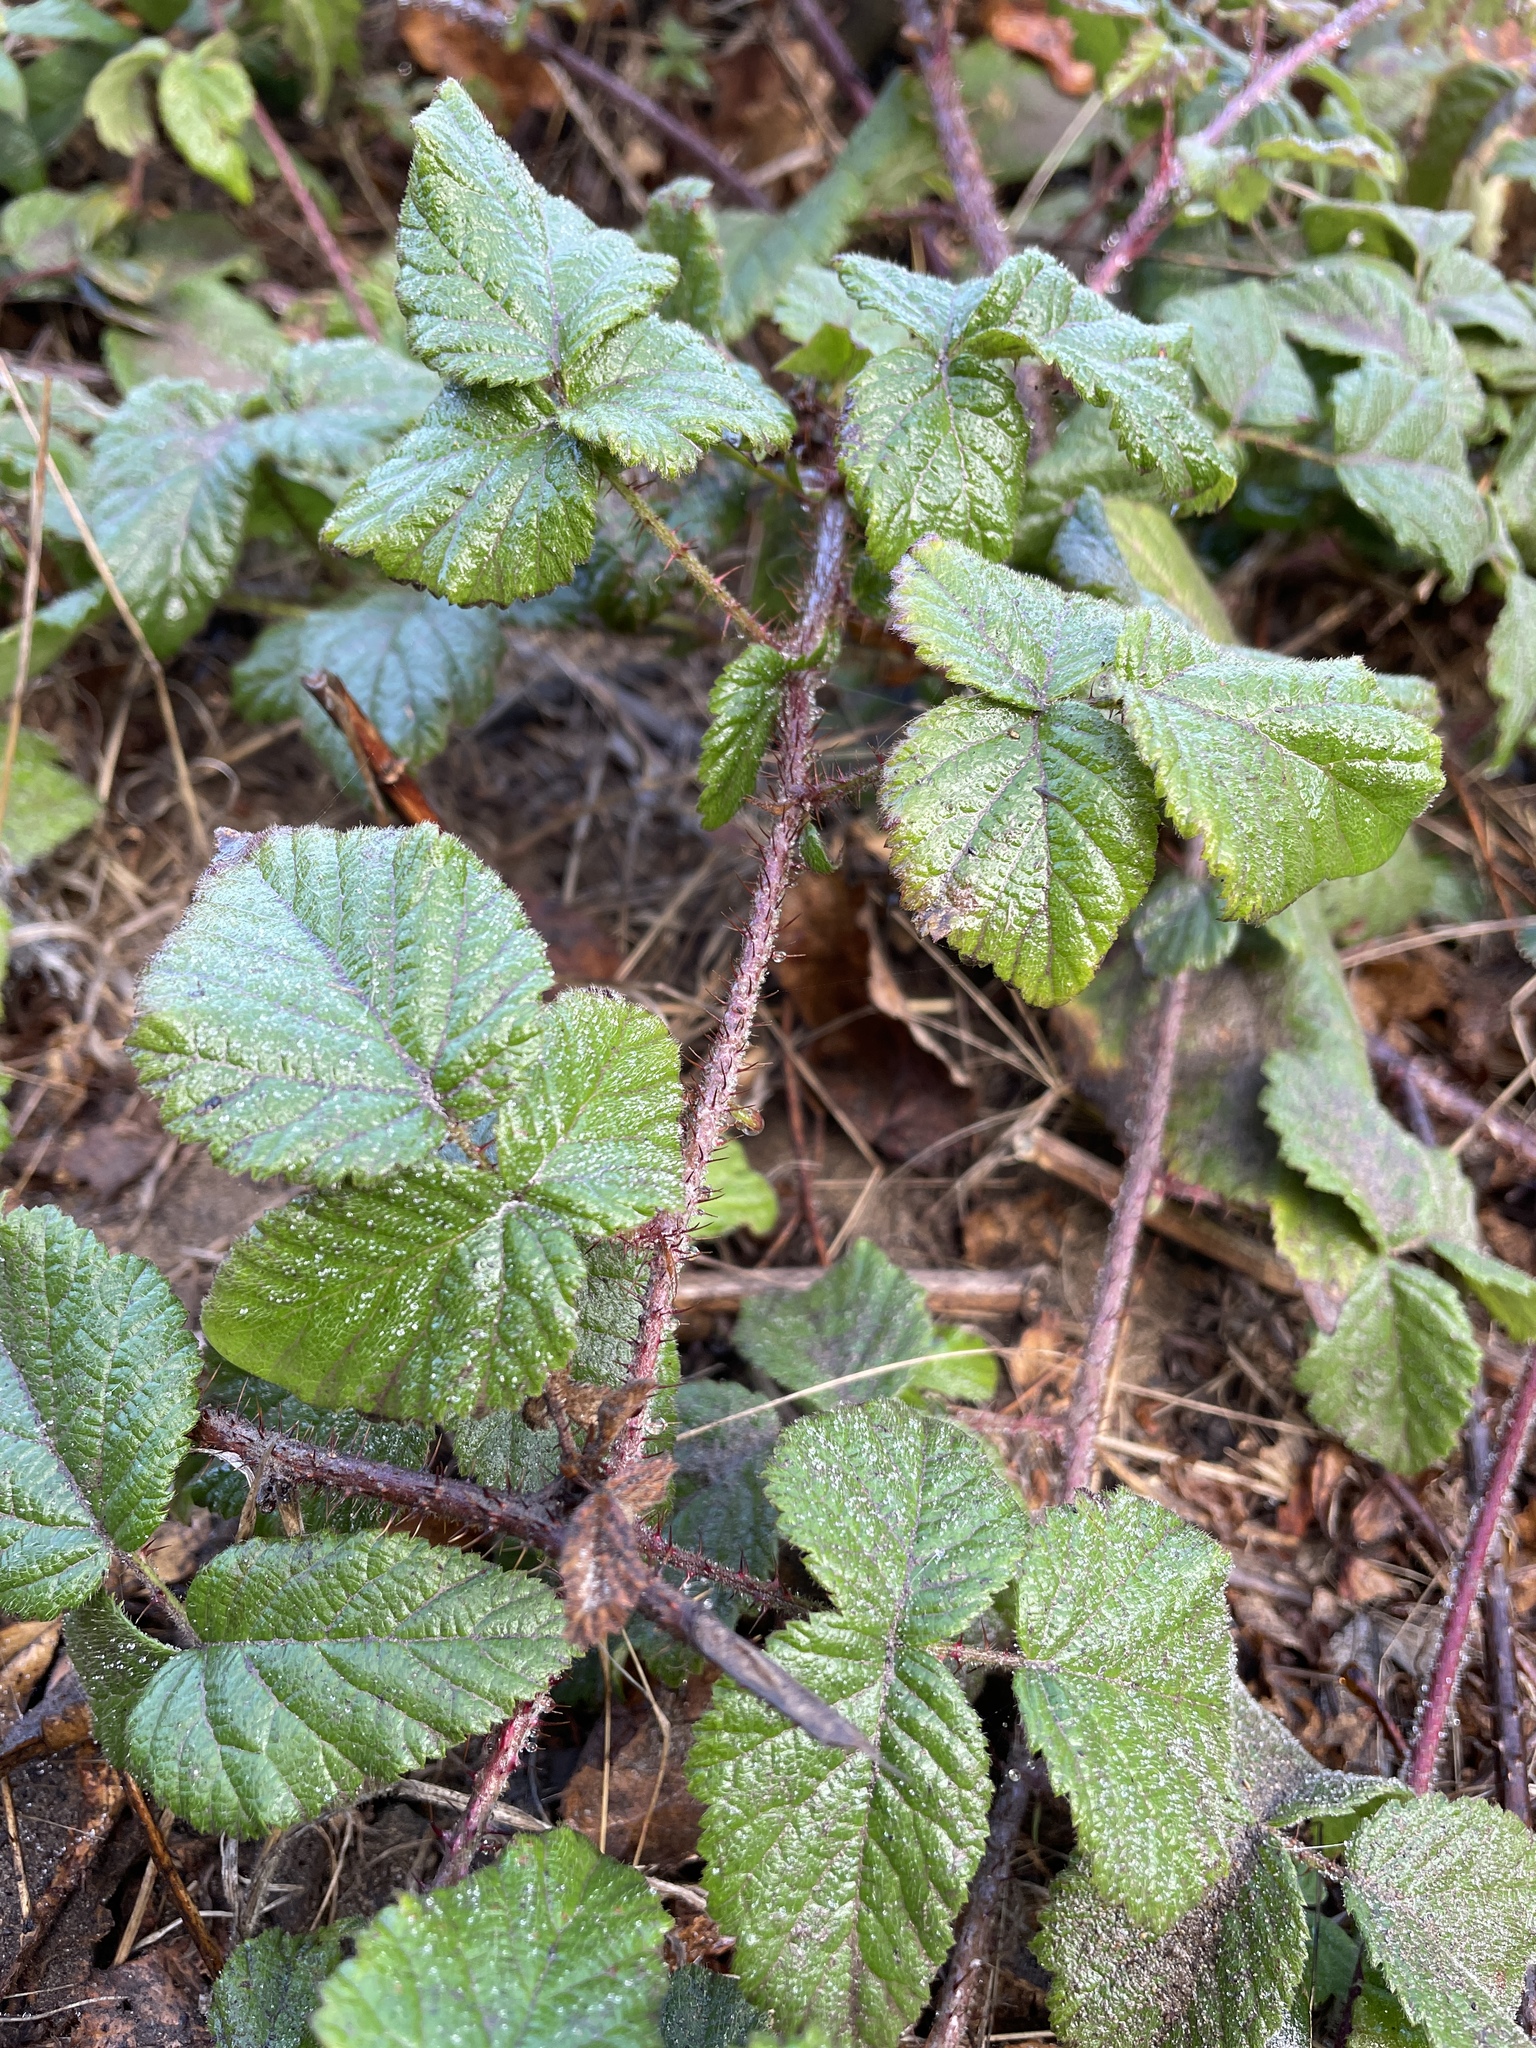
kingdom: Plantae
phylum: Tracheophyta
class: Magnoliopsida
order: Rosales
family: Rosaceae
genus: Rubus
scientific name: Rubus ursinus
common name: Pacific blackberry
